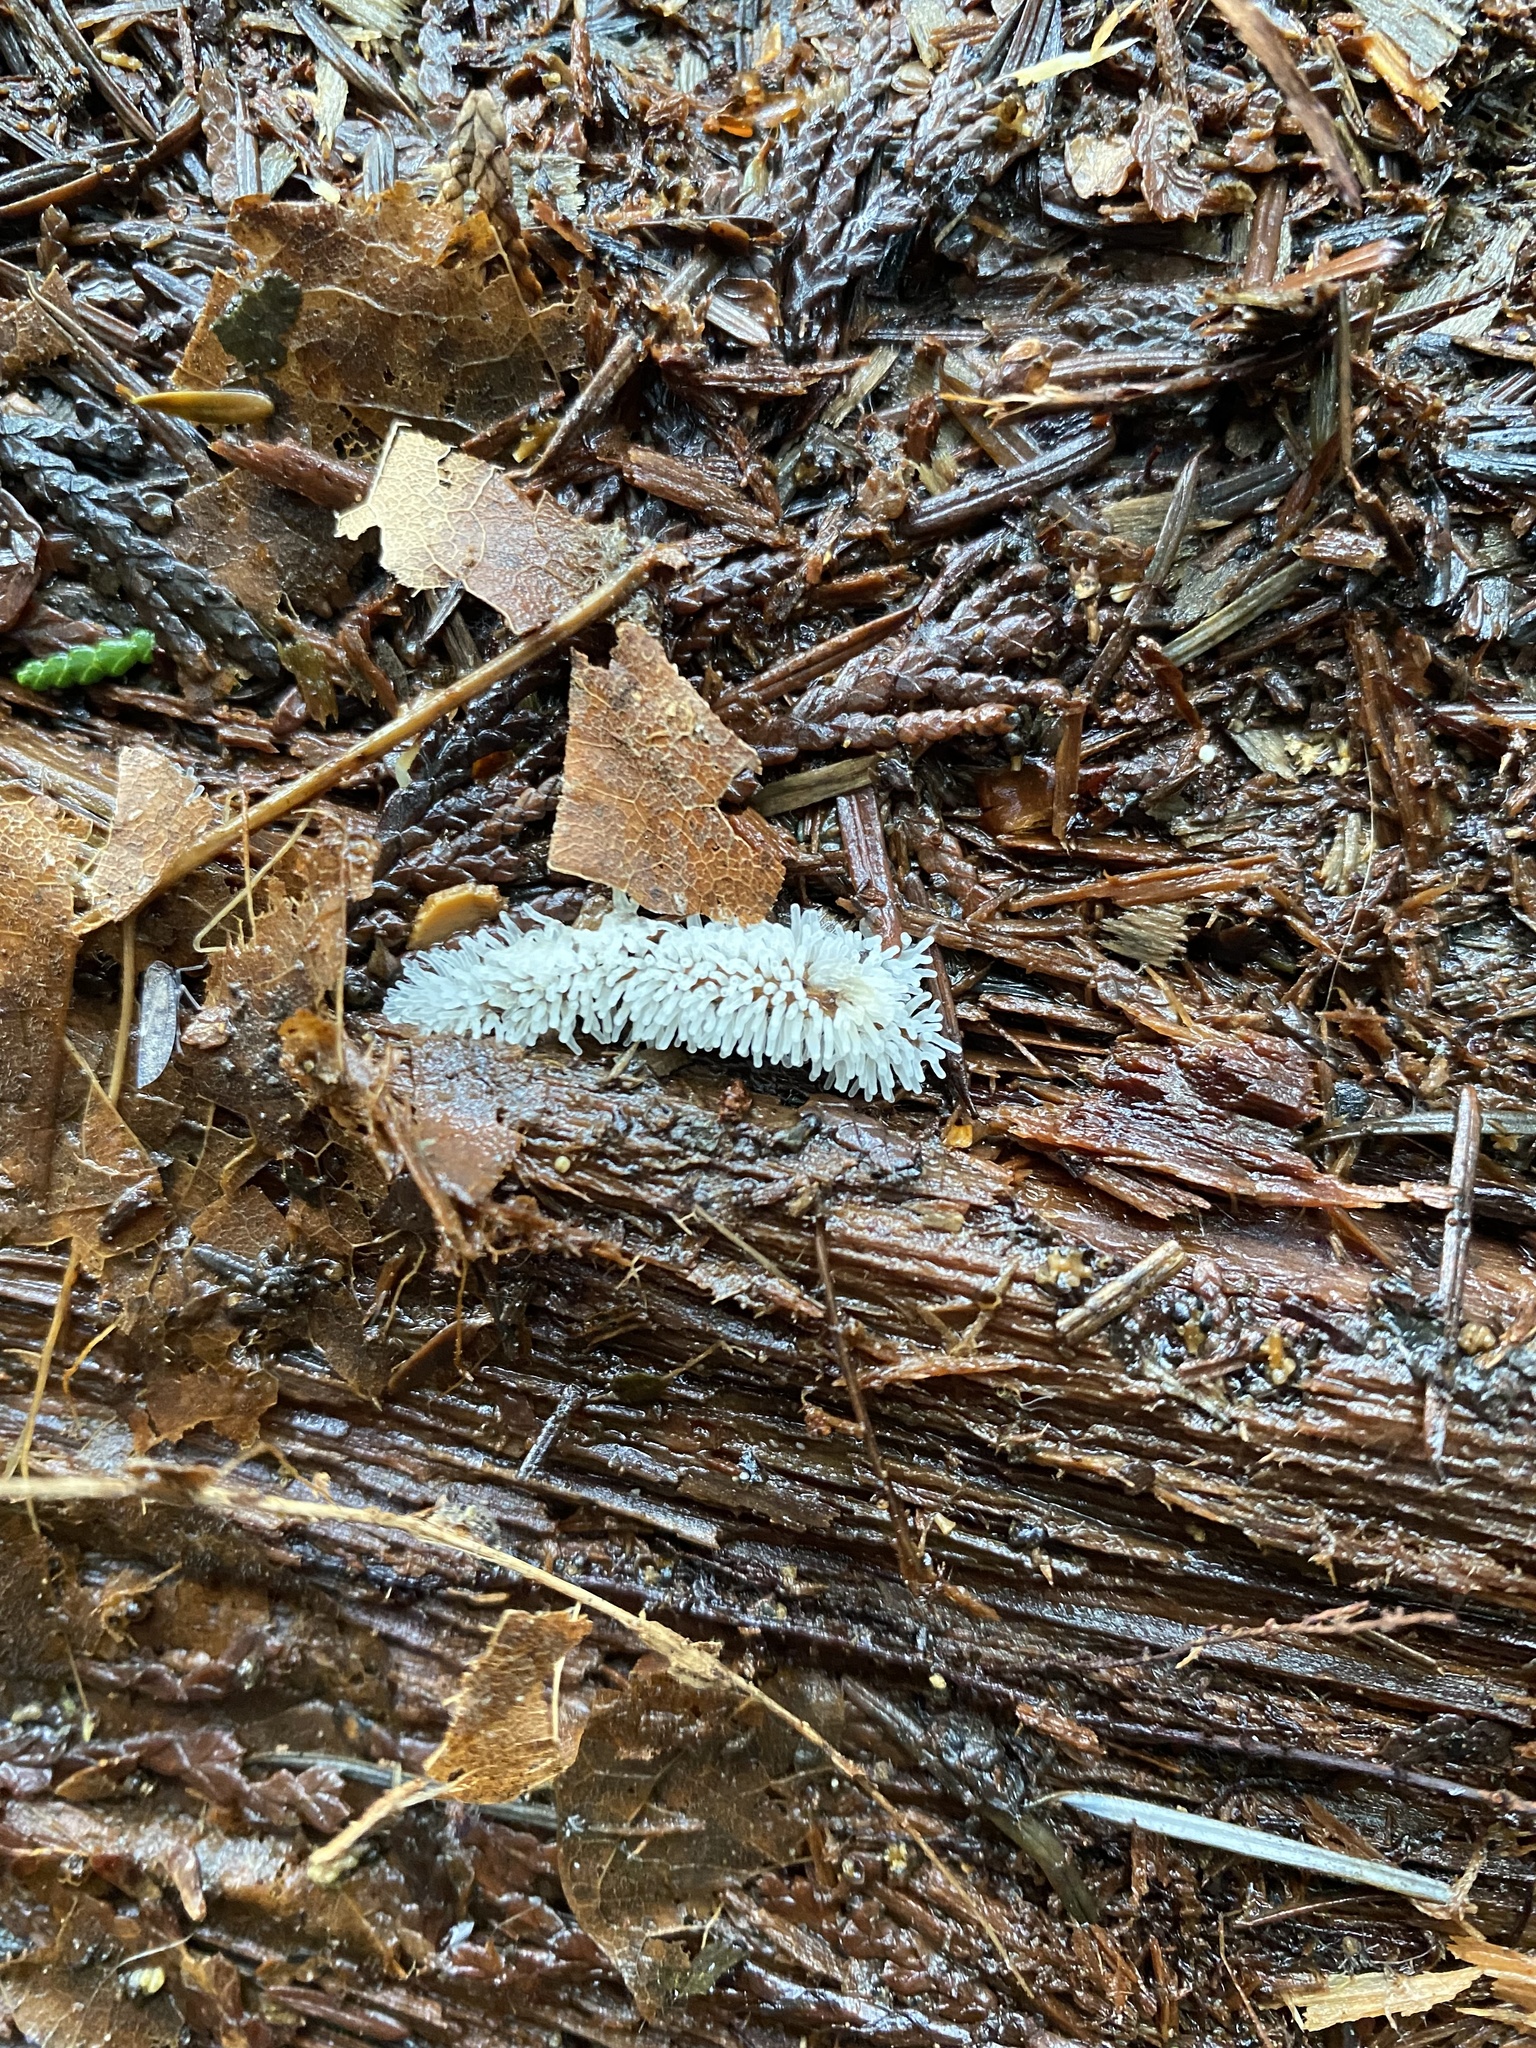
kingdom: Protozoa
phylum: Mycetozoa
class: Protosteliomycetes
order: Ceratiomyxales
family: Ceratiomyxaceae
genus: Ceratiomyxa
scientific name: Ceratiomyxa fruticulosa
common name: Honeycomb coral slime mold
